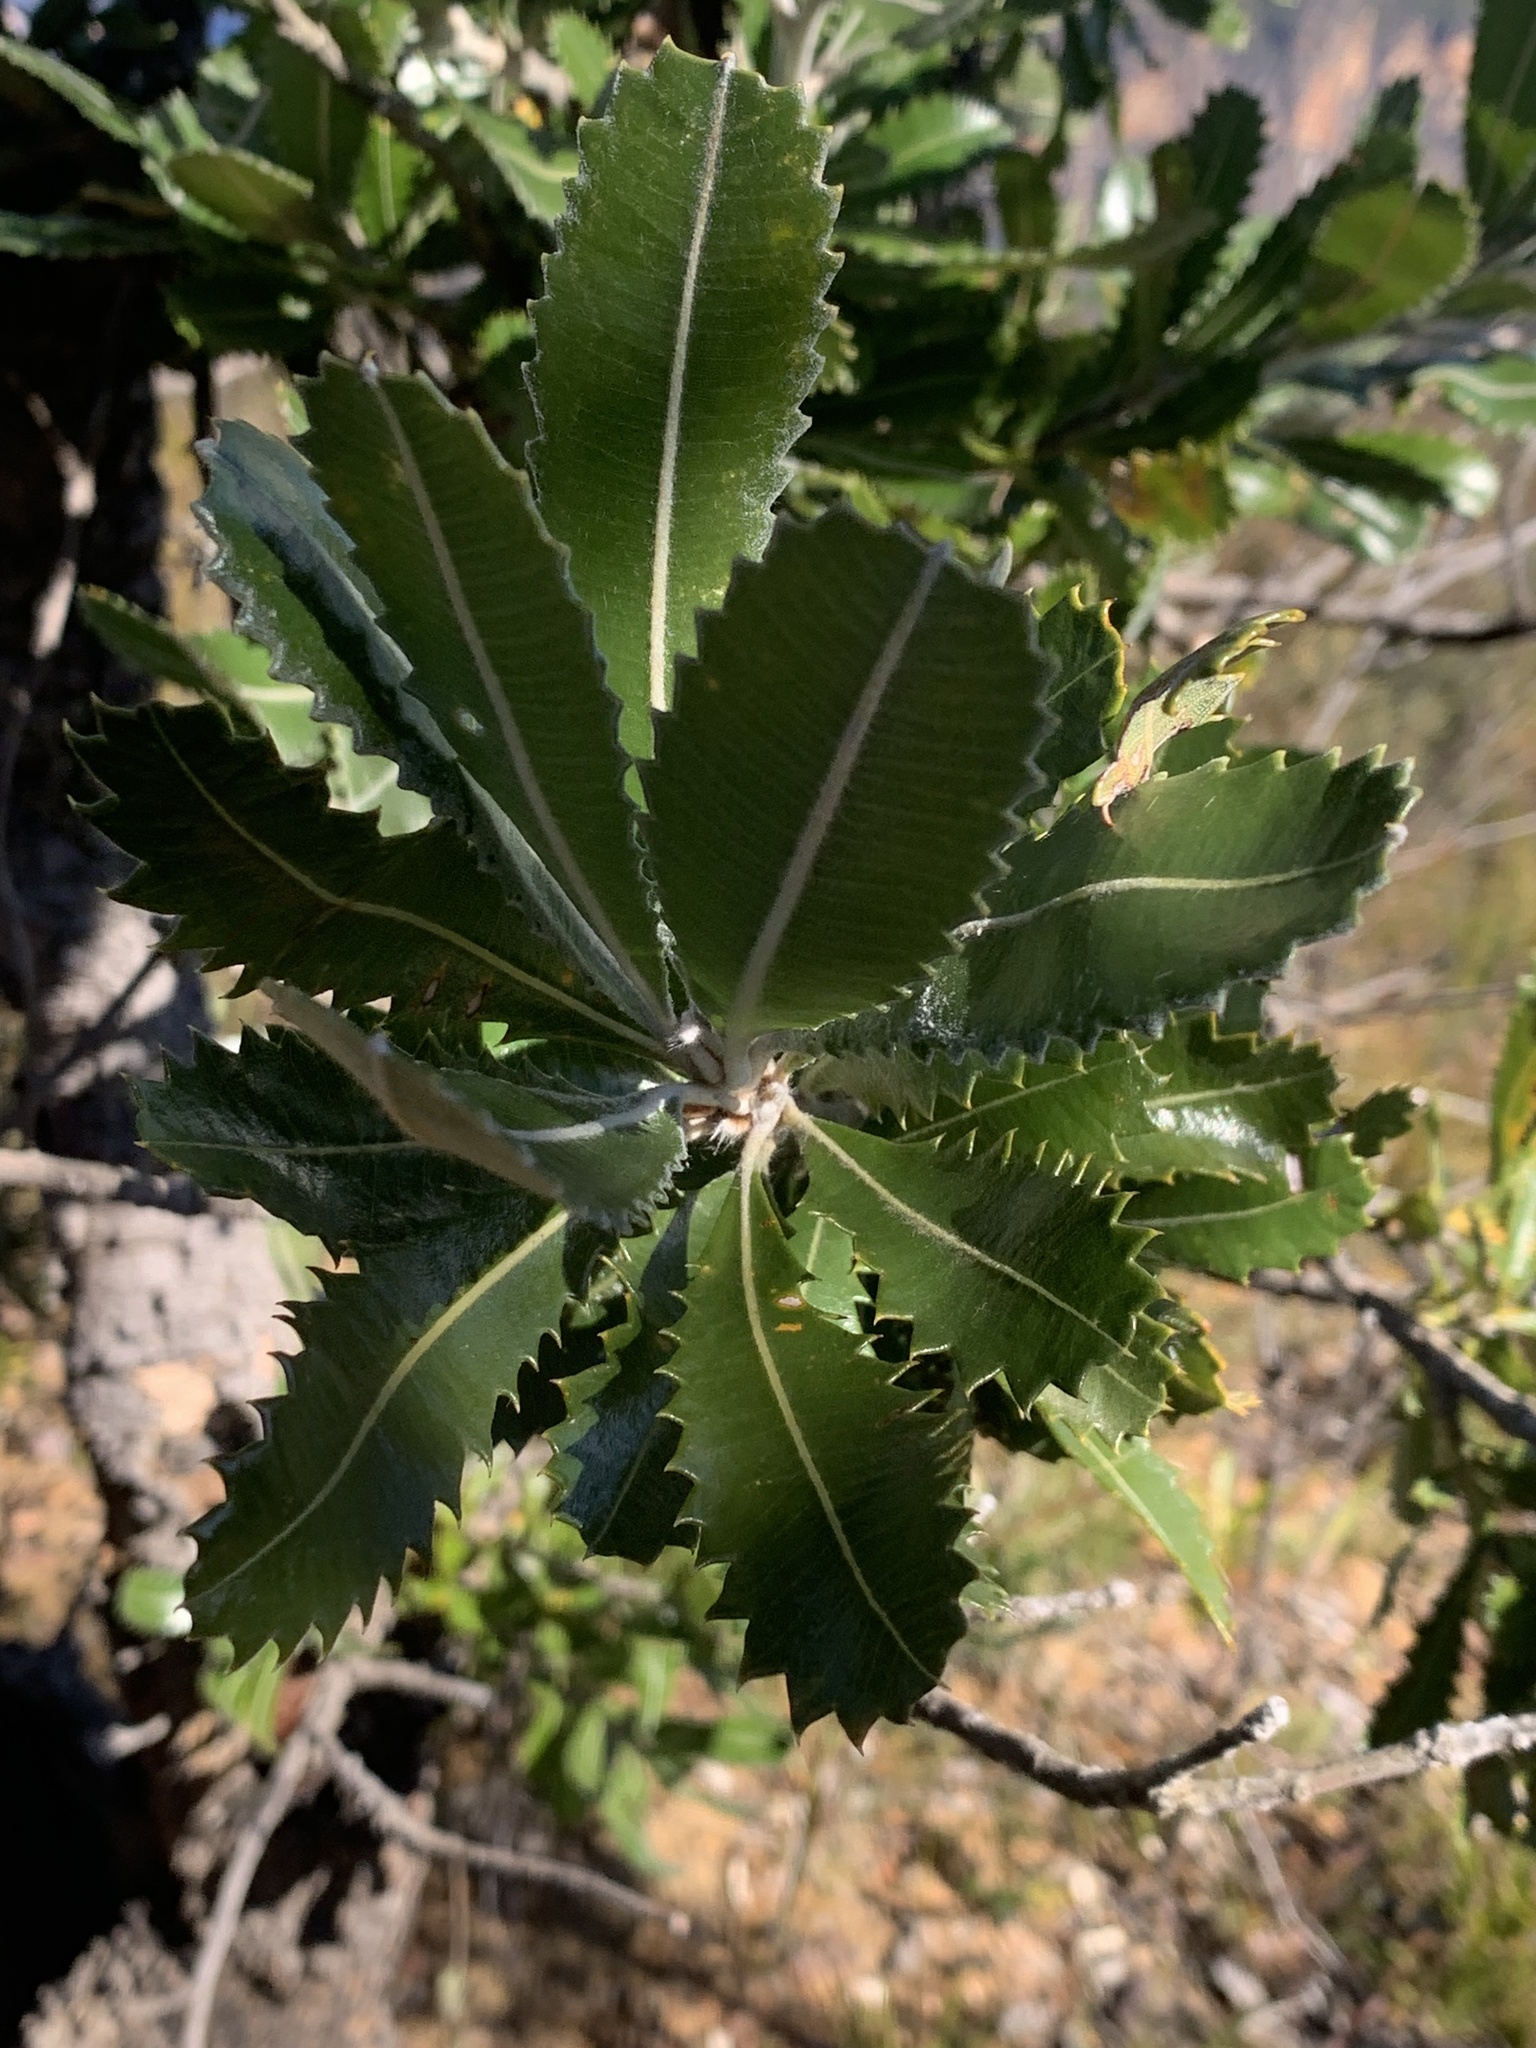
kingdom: Plantae
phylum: Tracheophyta
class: Magnoliopsida
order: Proteales
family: Proteaceae
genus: Banksia
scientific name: Banksia serrata
